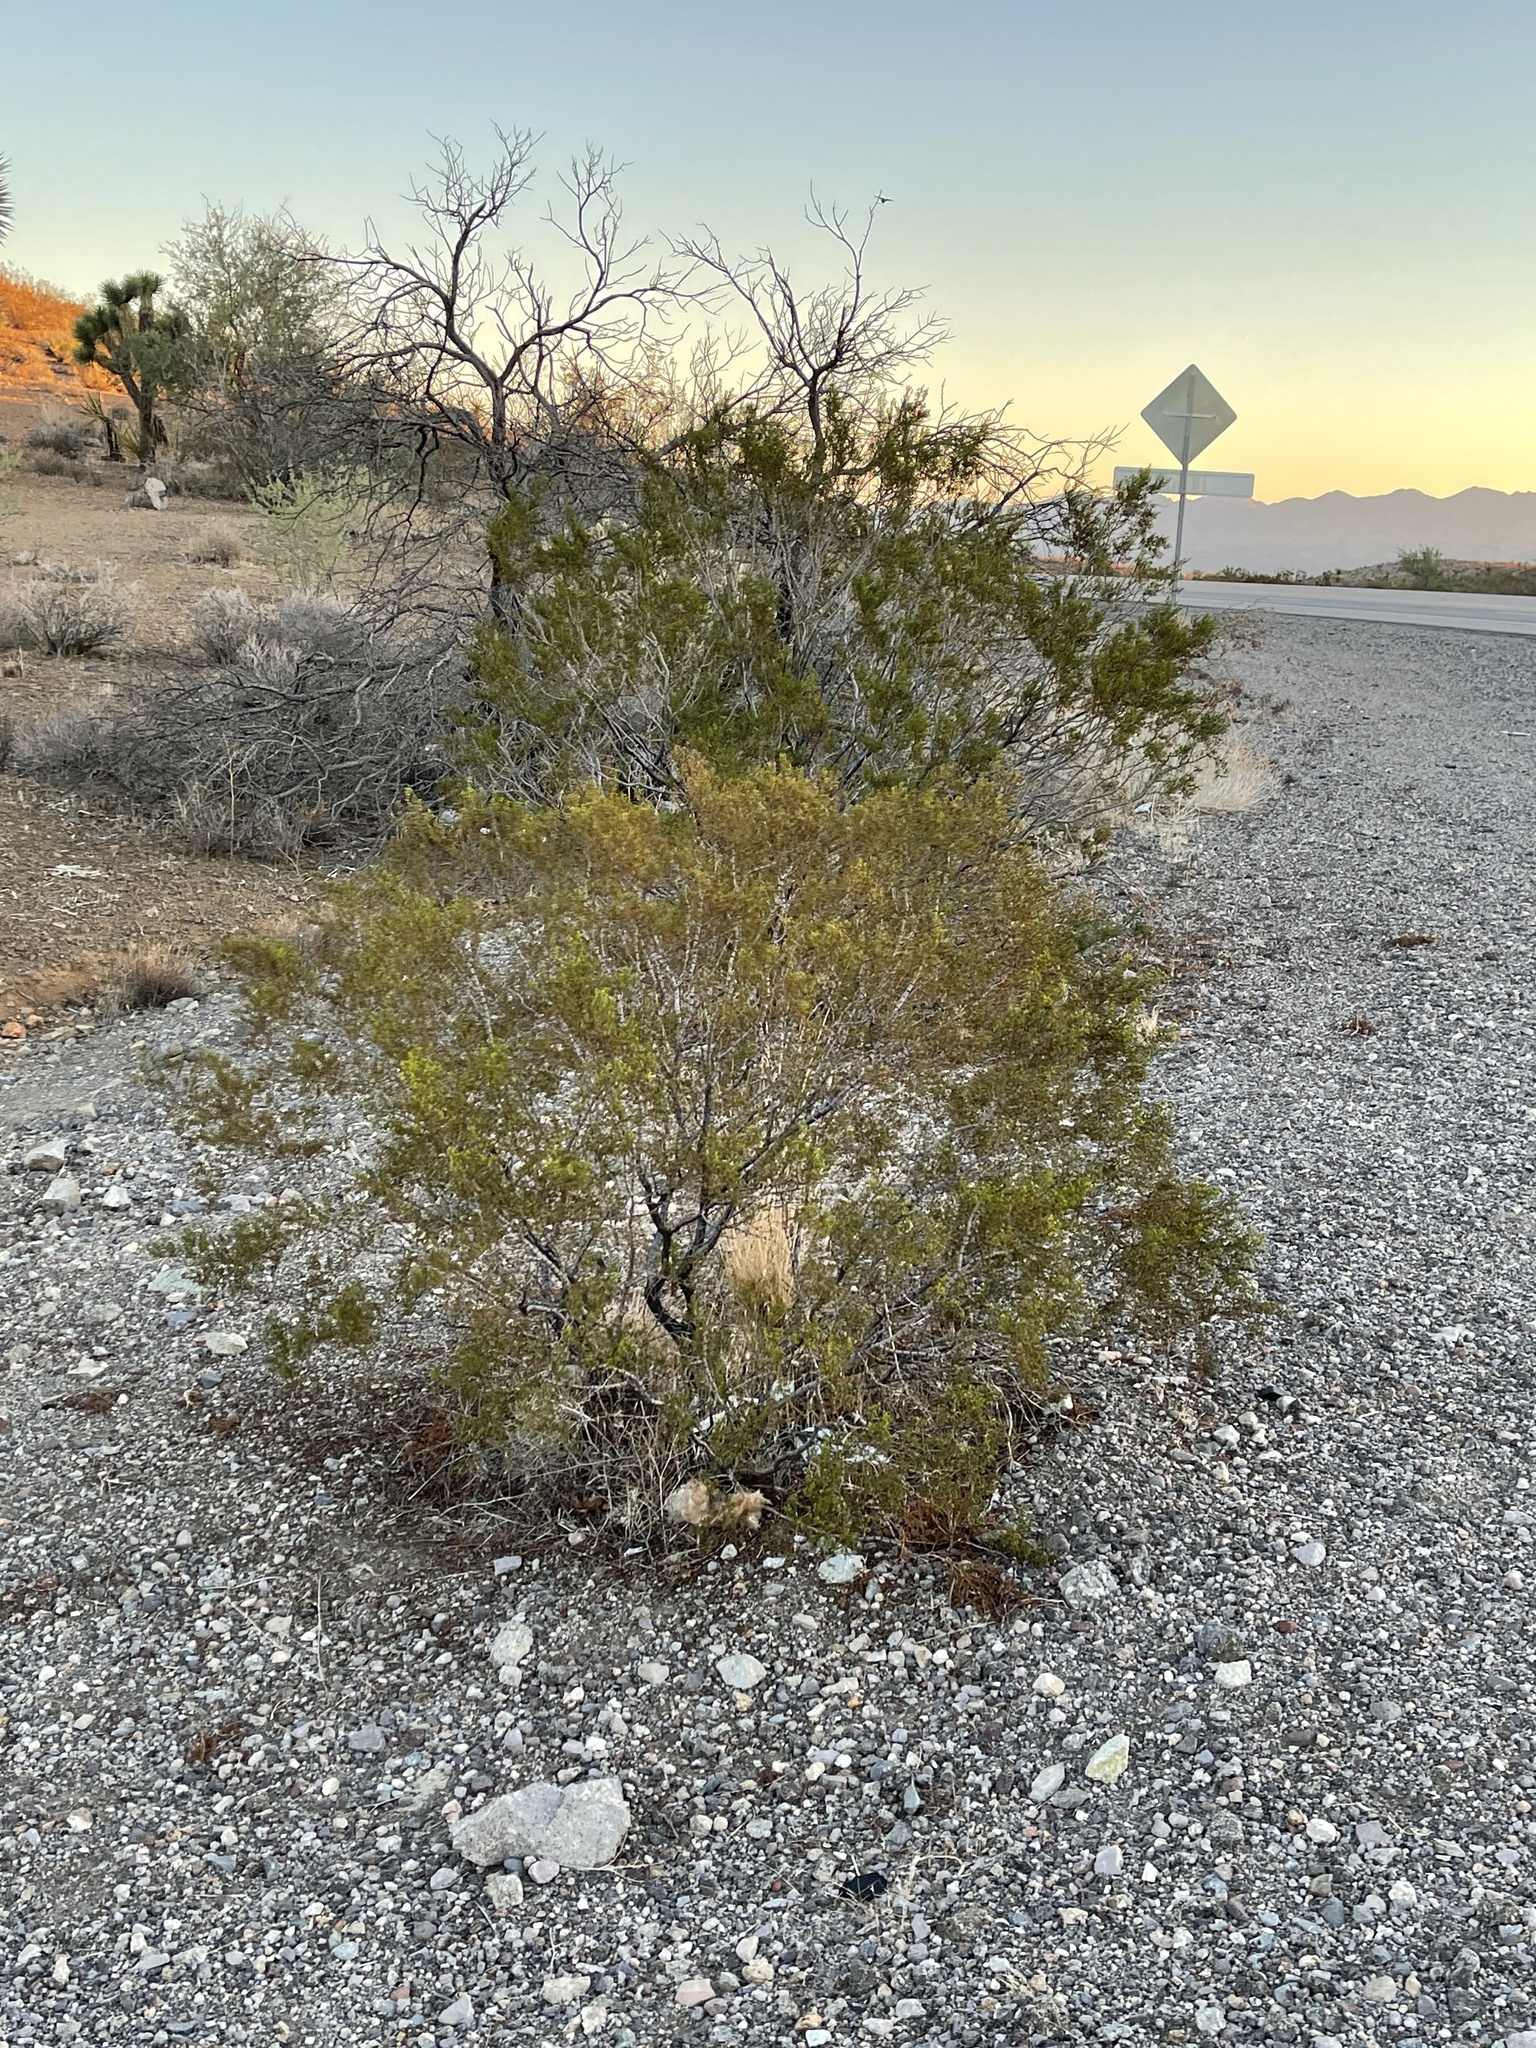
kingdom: Plantae
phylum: Tracheophyta
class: Magnoliopsida
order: Zygophyllales
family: Zygophyllaceae
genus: Larrea
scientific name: Larrea tridentata
